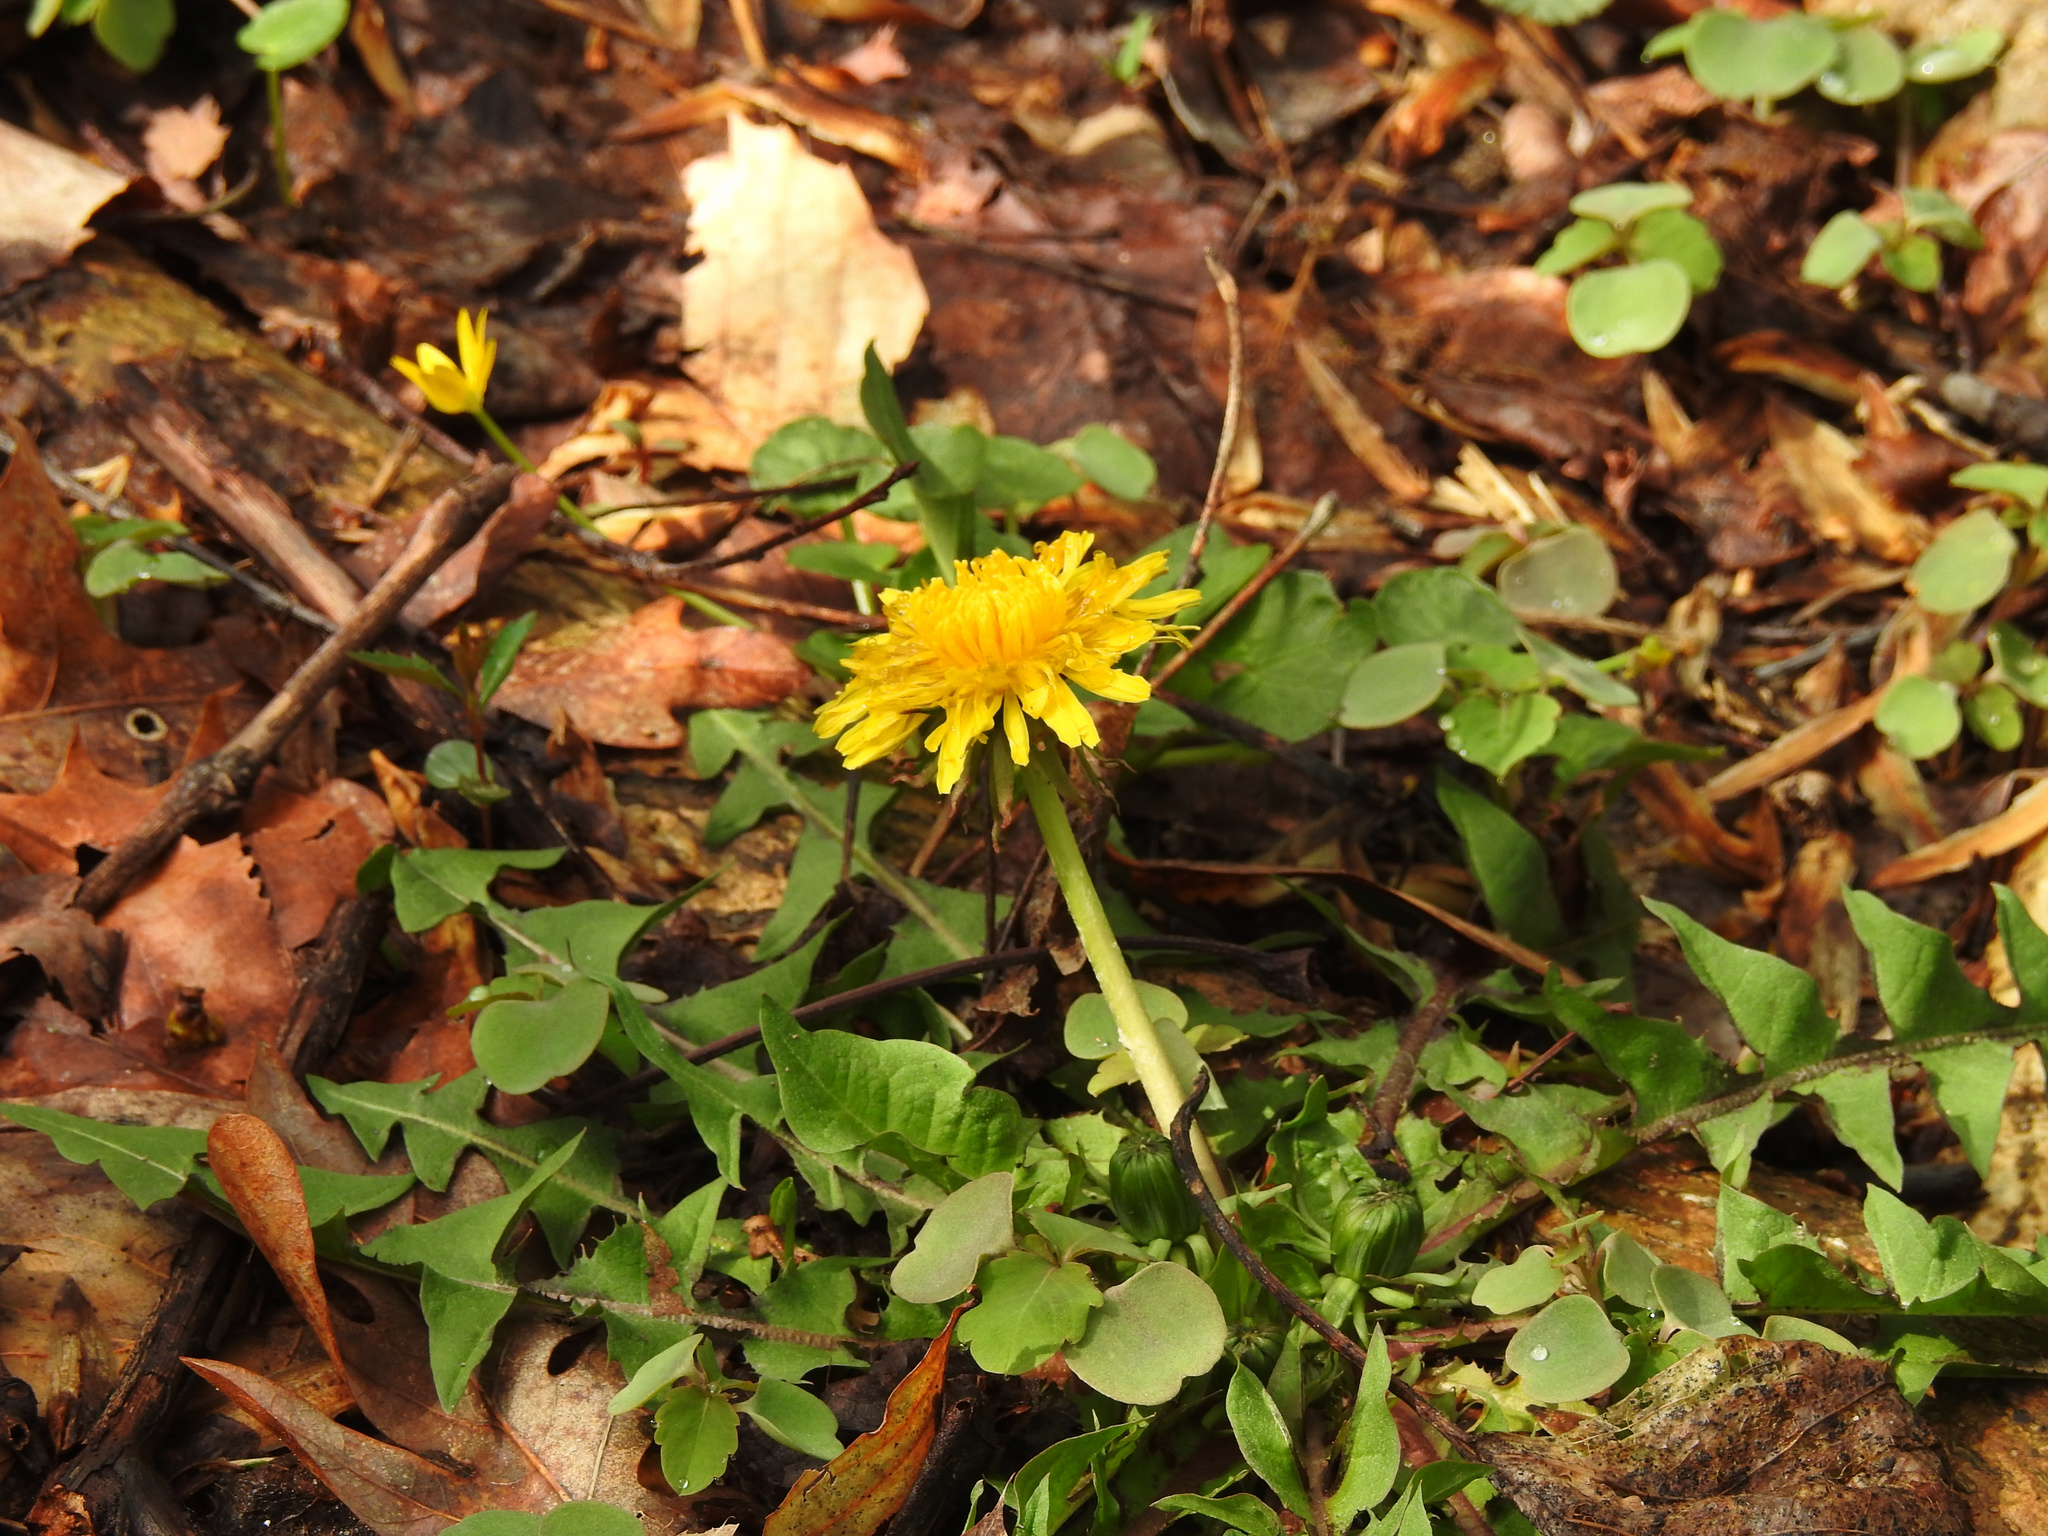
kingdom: Plantae
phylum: Tracheophyta
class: Magnoliopsida
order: Asterales
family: Asteraceae
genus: Taraxacum
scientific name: Taraxacum officinale
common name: Common dandelion
